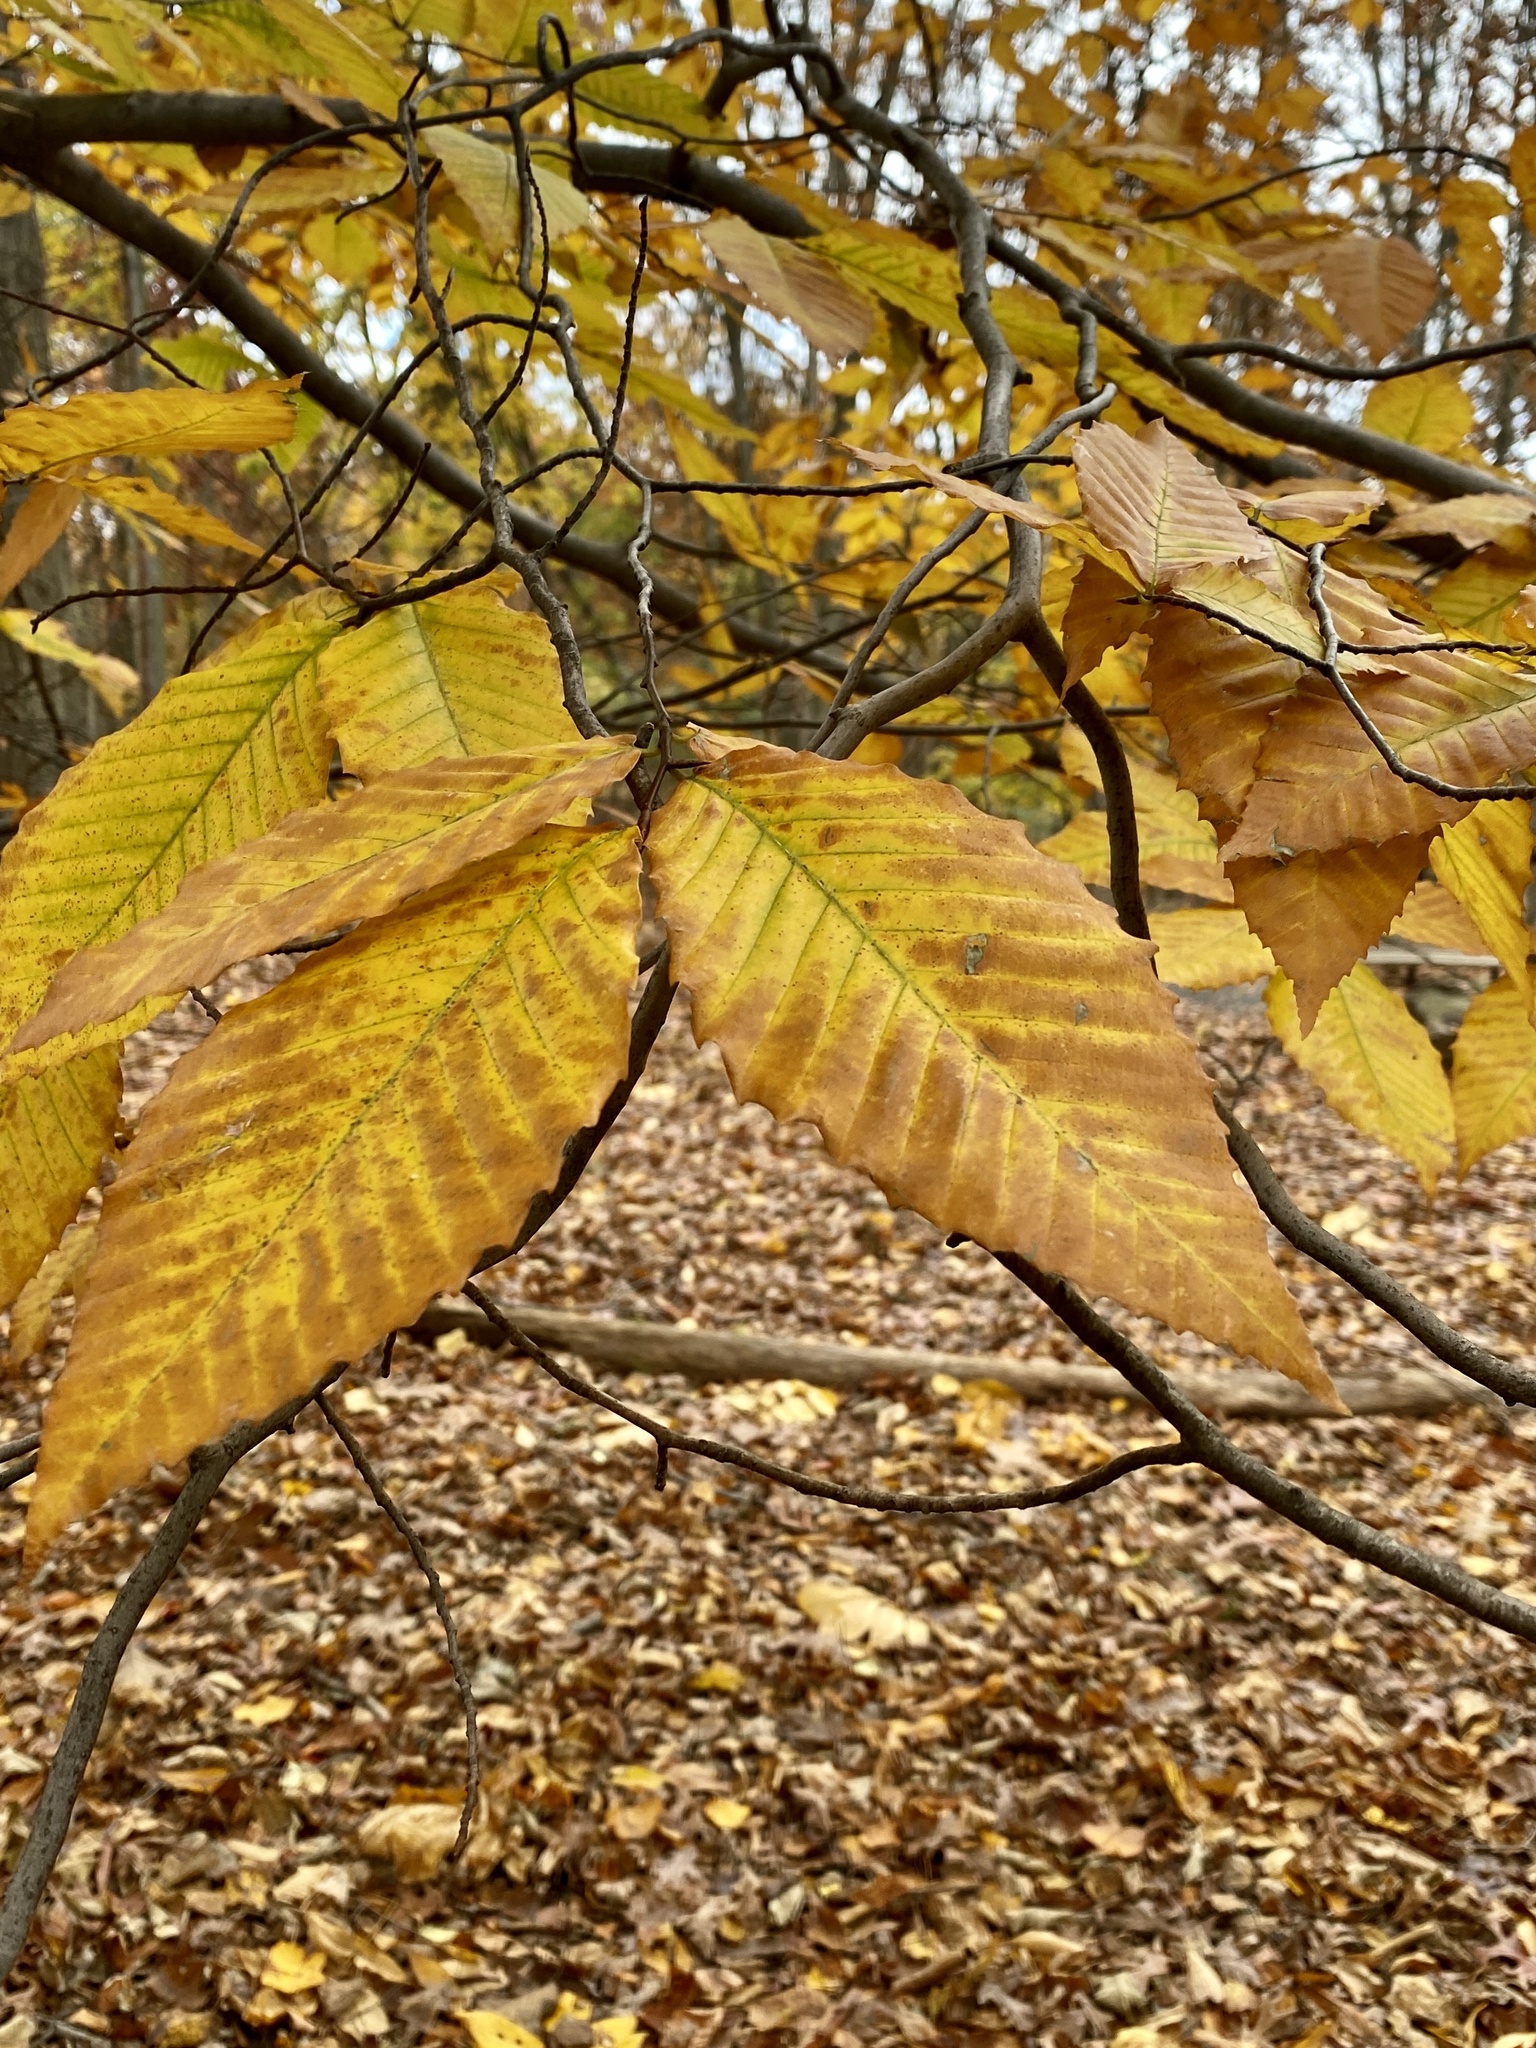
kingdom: Plantae
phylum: Tracheophyta
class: Magnoliopsida
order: Fagales
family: Fagaceae
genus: Fagus
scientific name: Fagus grandifolia
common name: American beech
